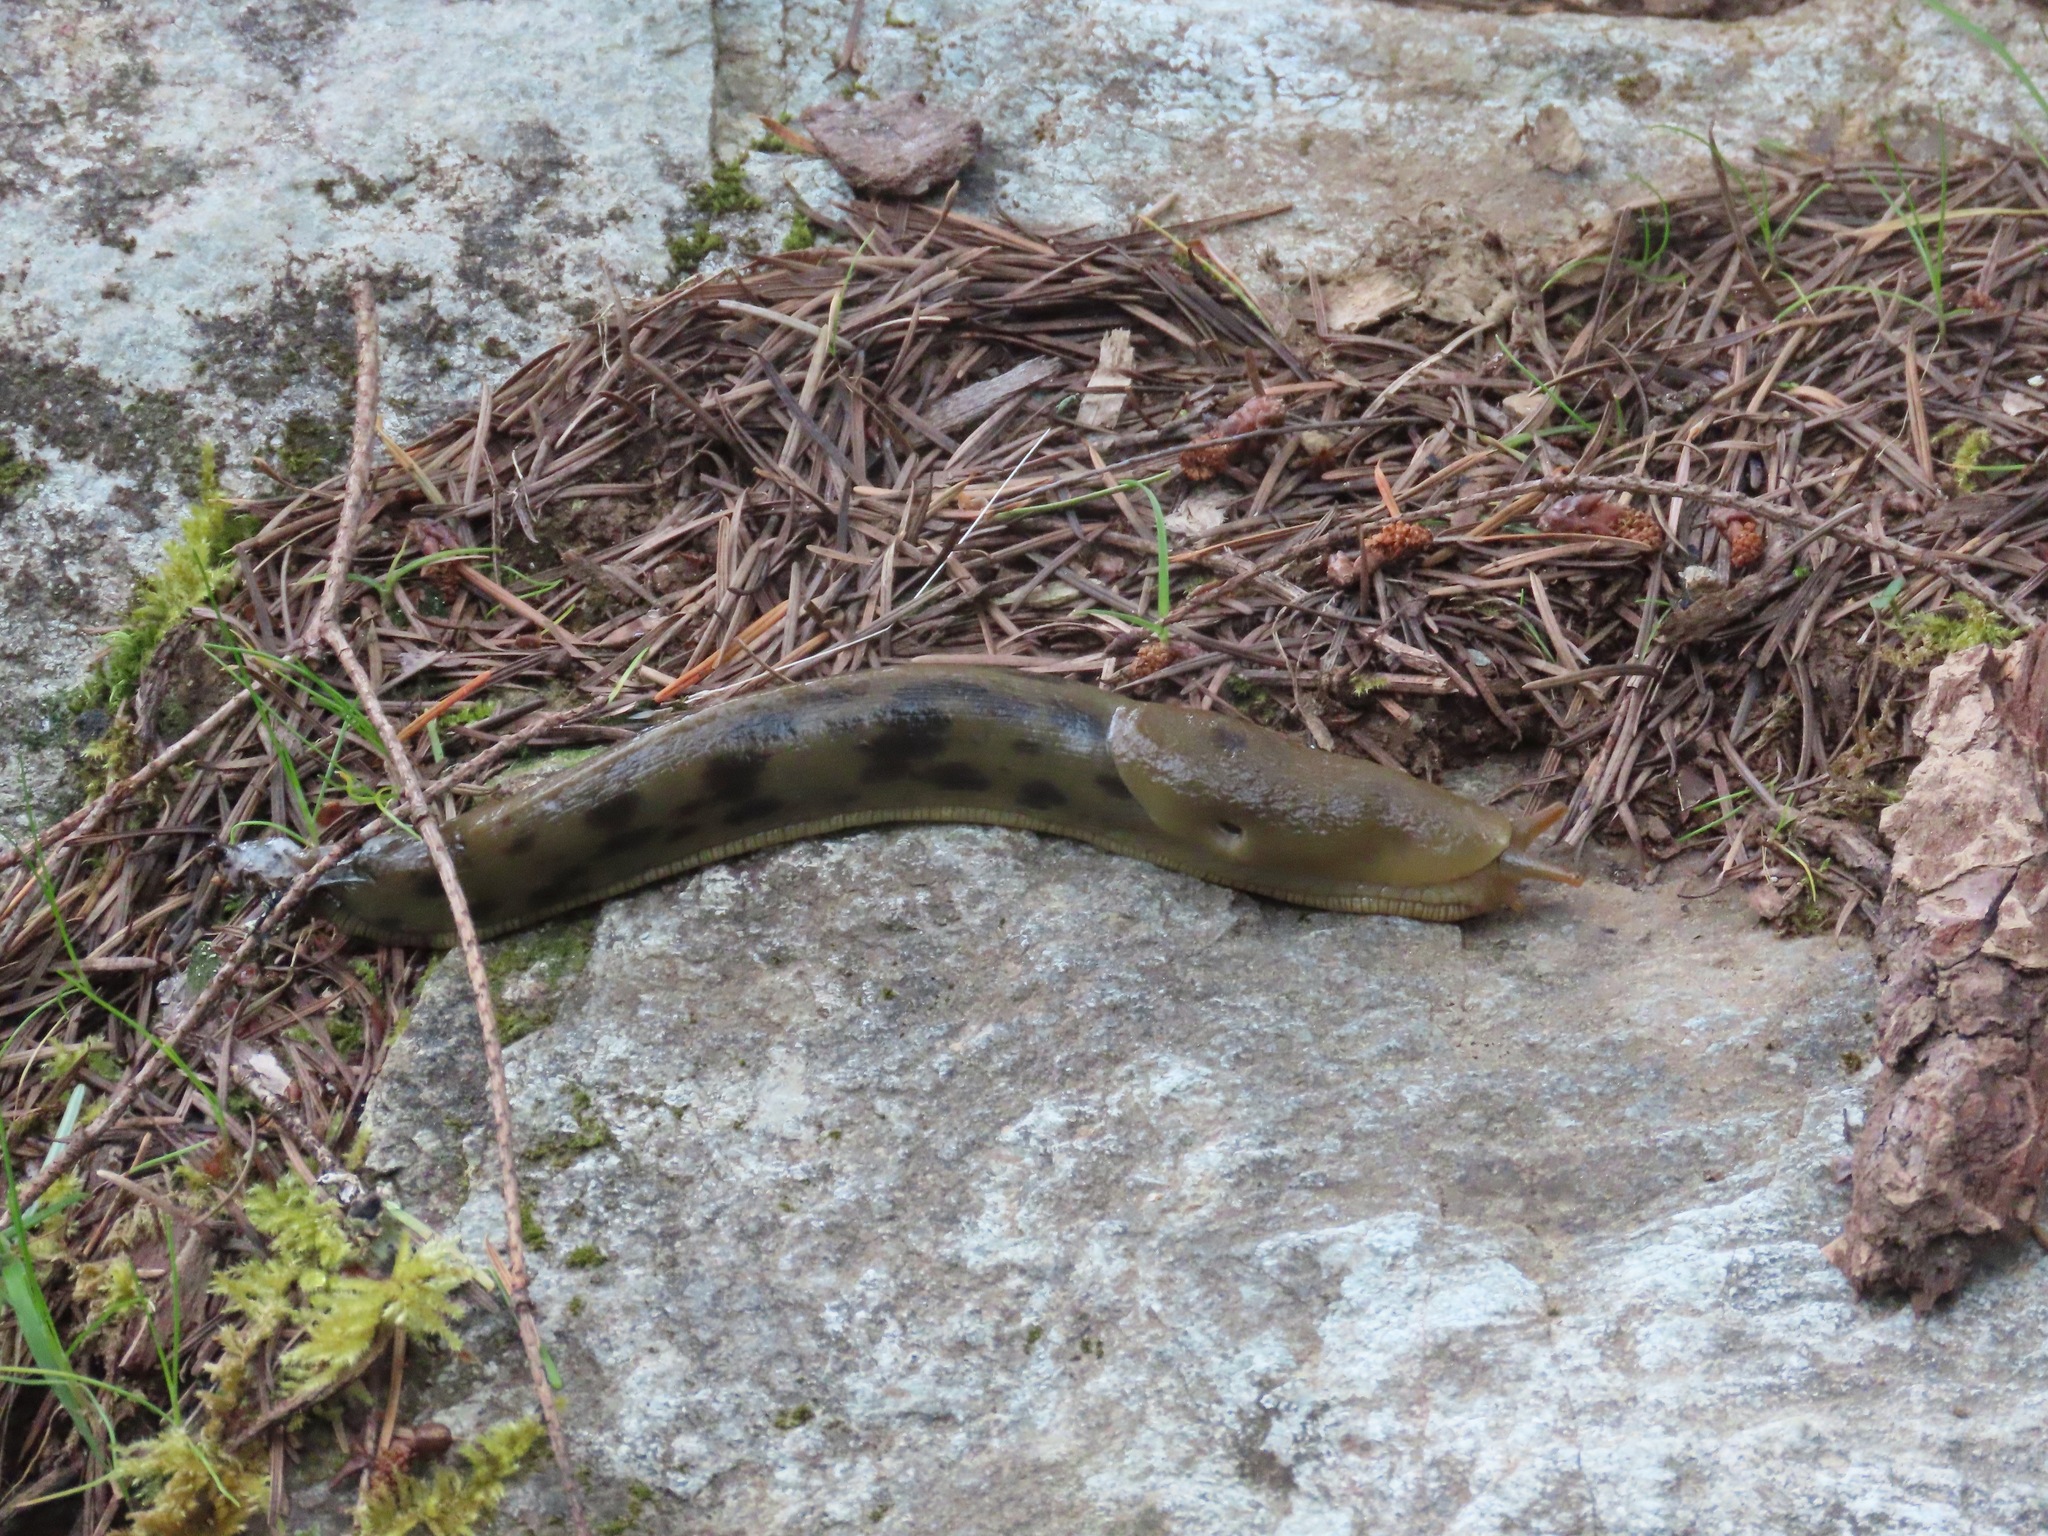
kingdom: Animalia
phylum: Mollusca
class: Gastropoda
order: Stylommatophora
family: Ariolimacidae
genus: Ariolimax
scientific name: Ariolimax columbianus
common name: Pacific banana slug
